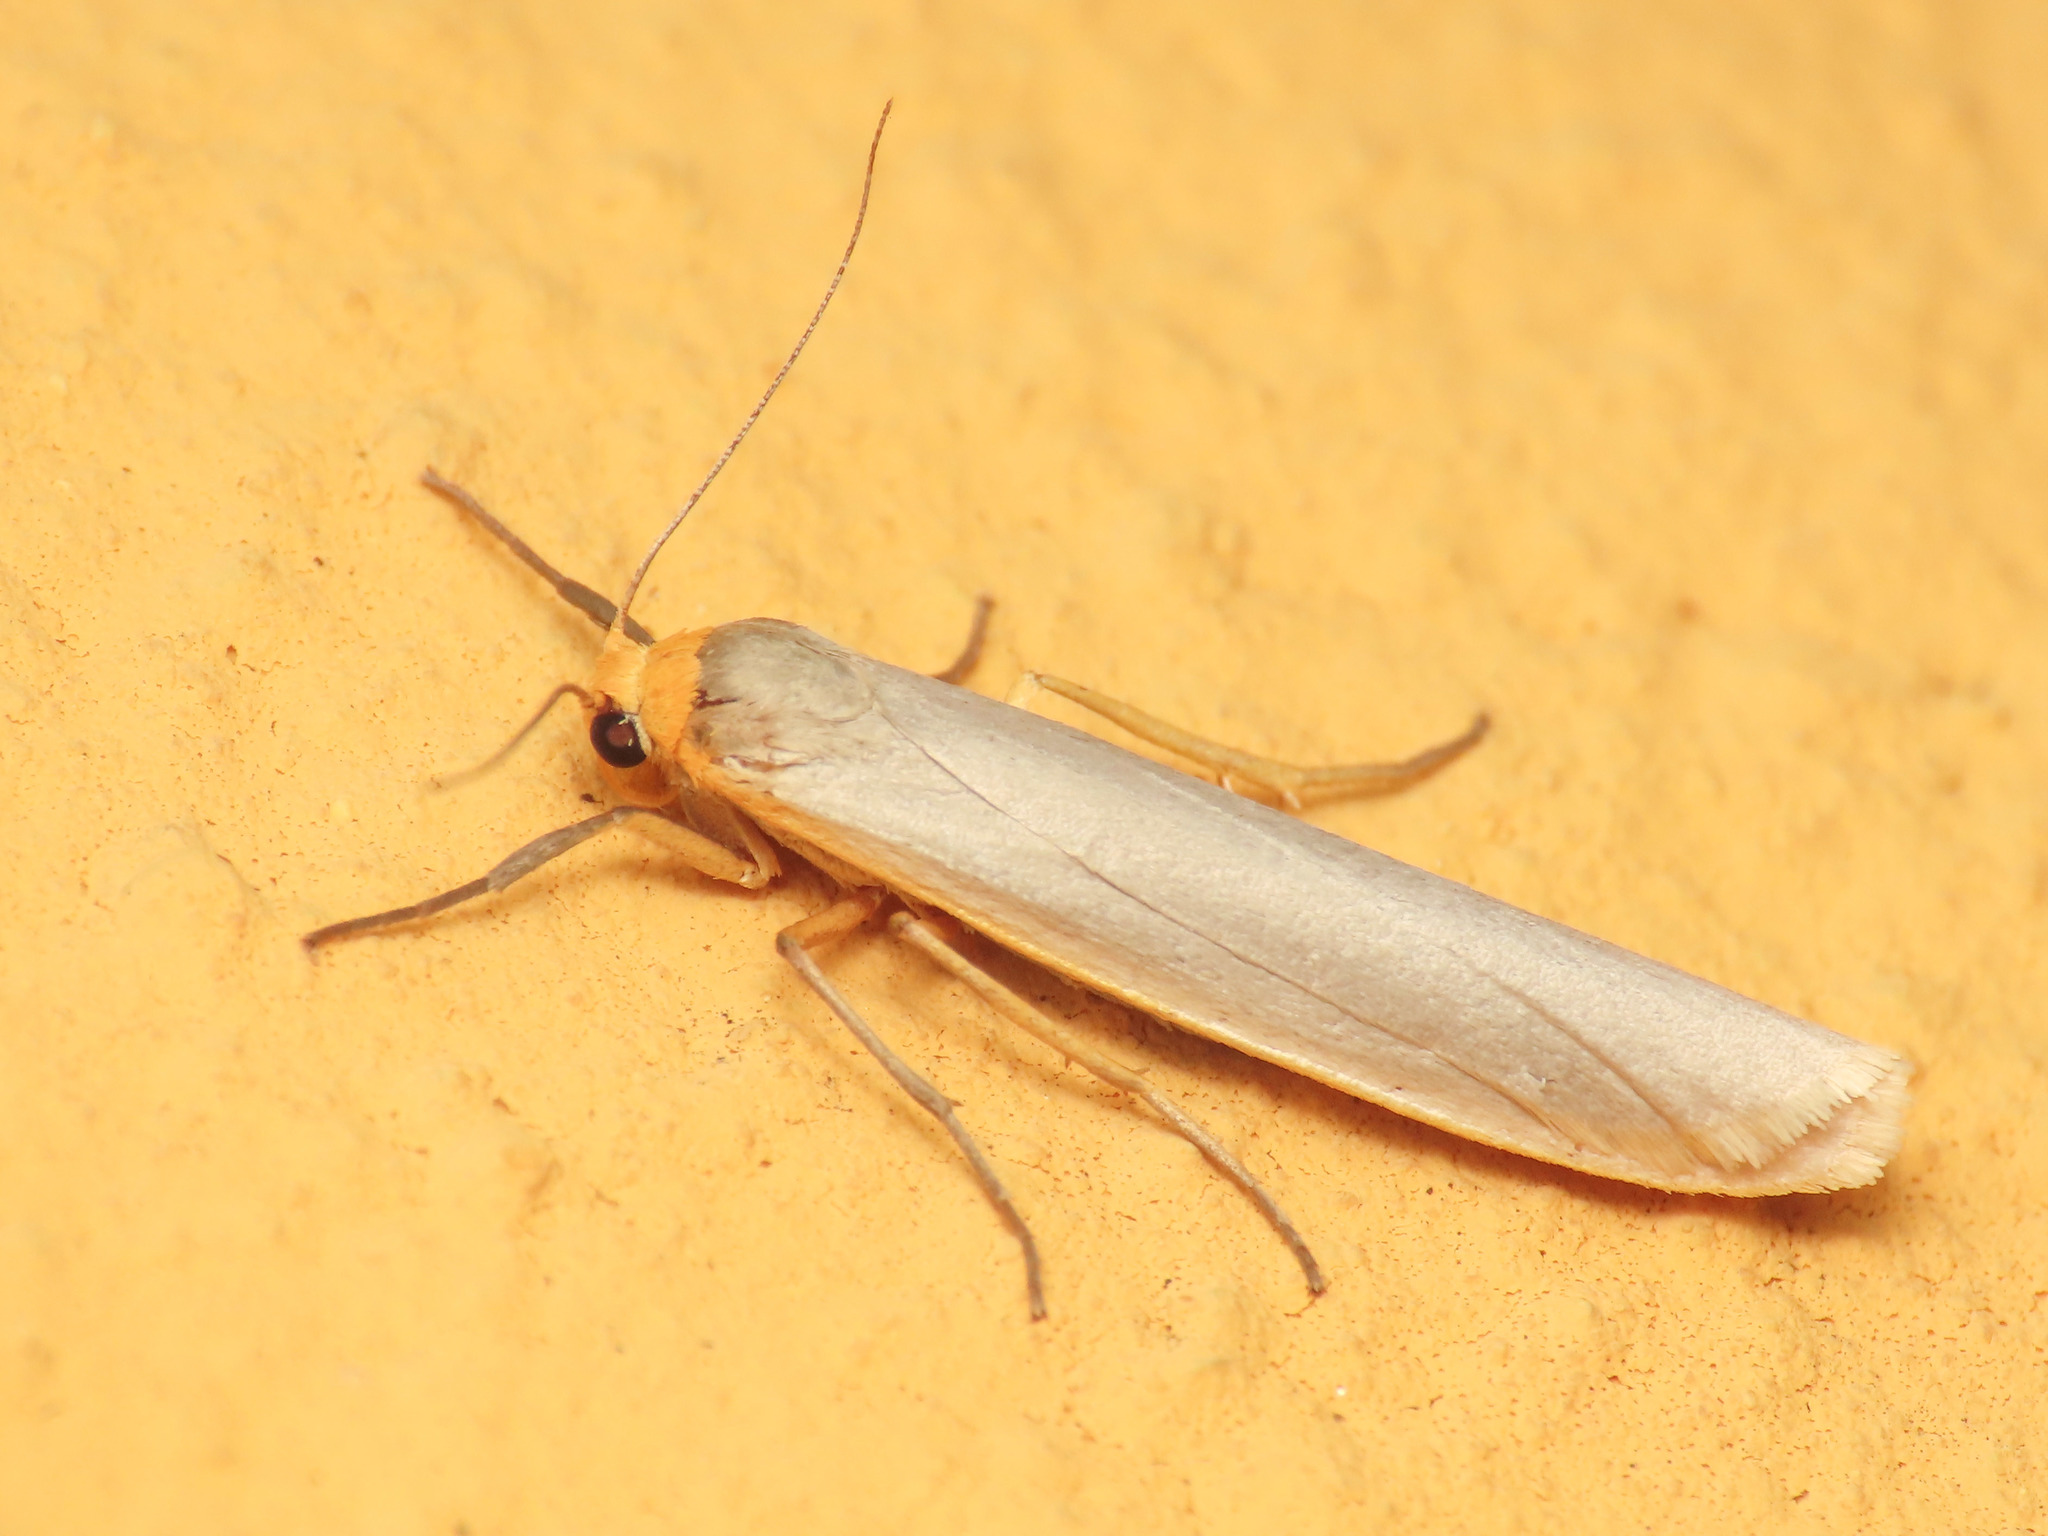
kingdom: Animalia
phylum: Arthropoda
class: Insecta
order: Lepidoptera
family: Erebidae
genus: Eilema
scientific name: Eilema caniola
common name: Hoary footman
